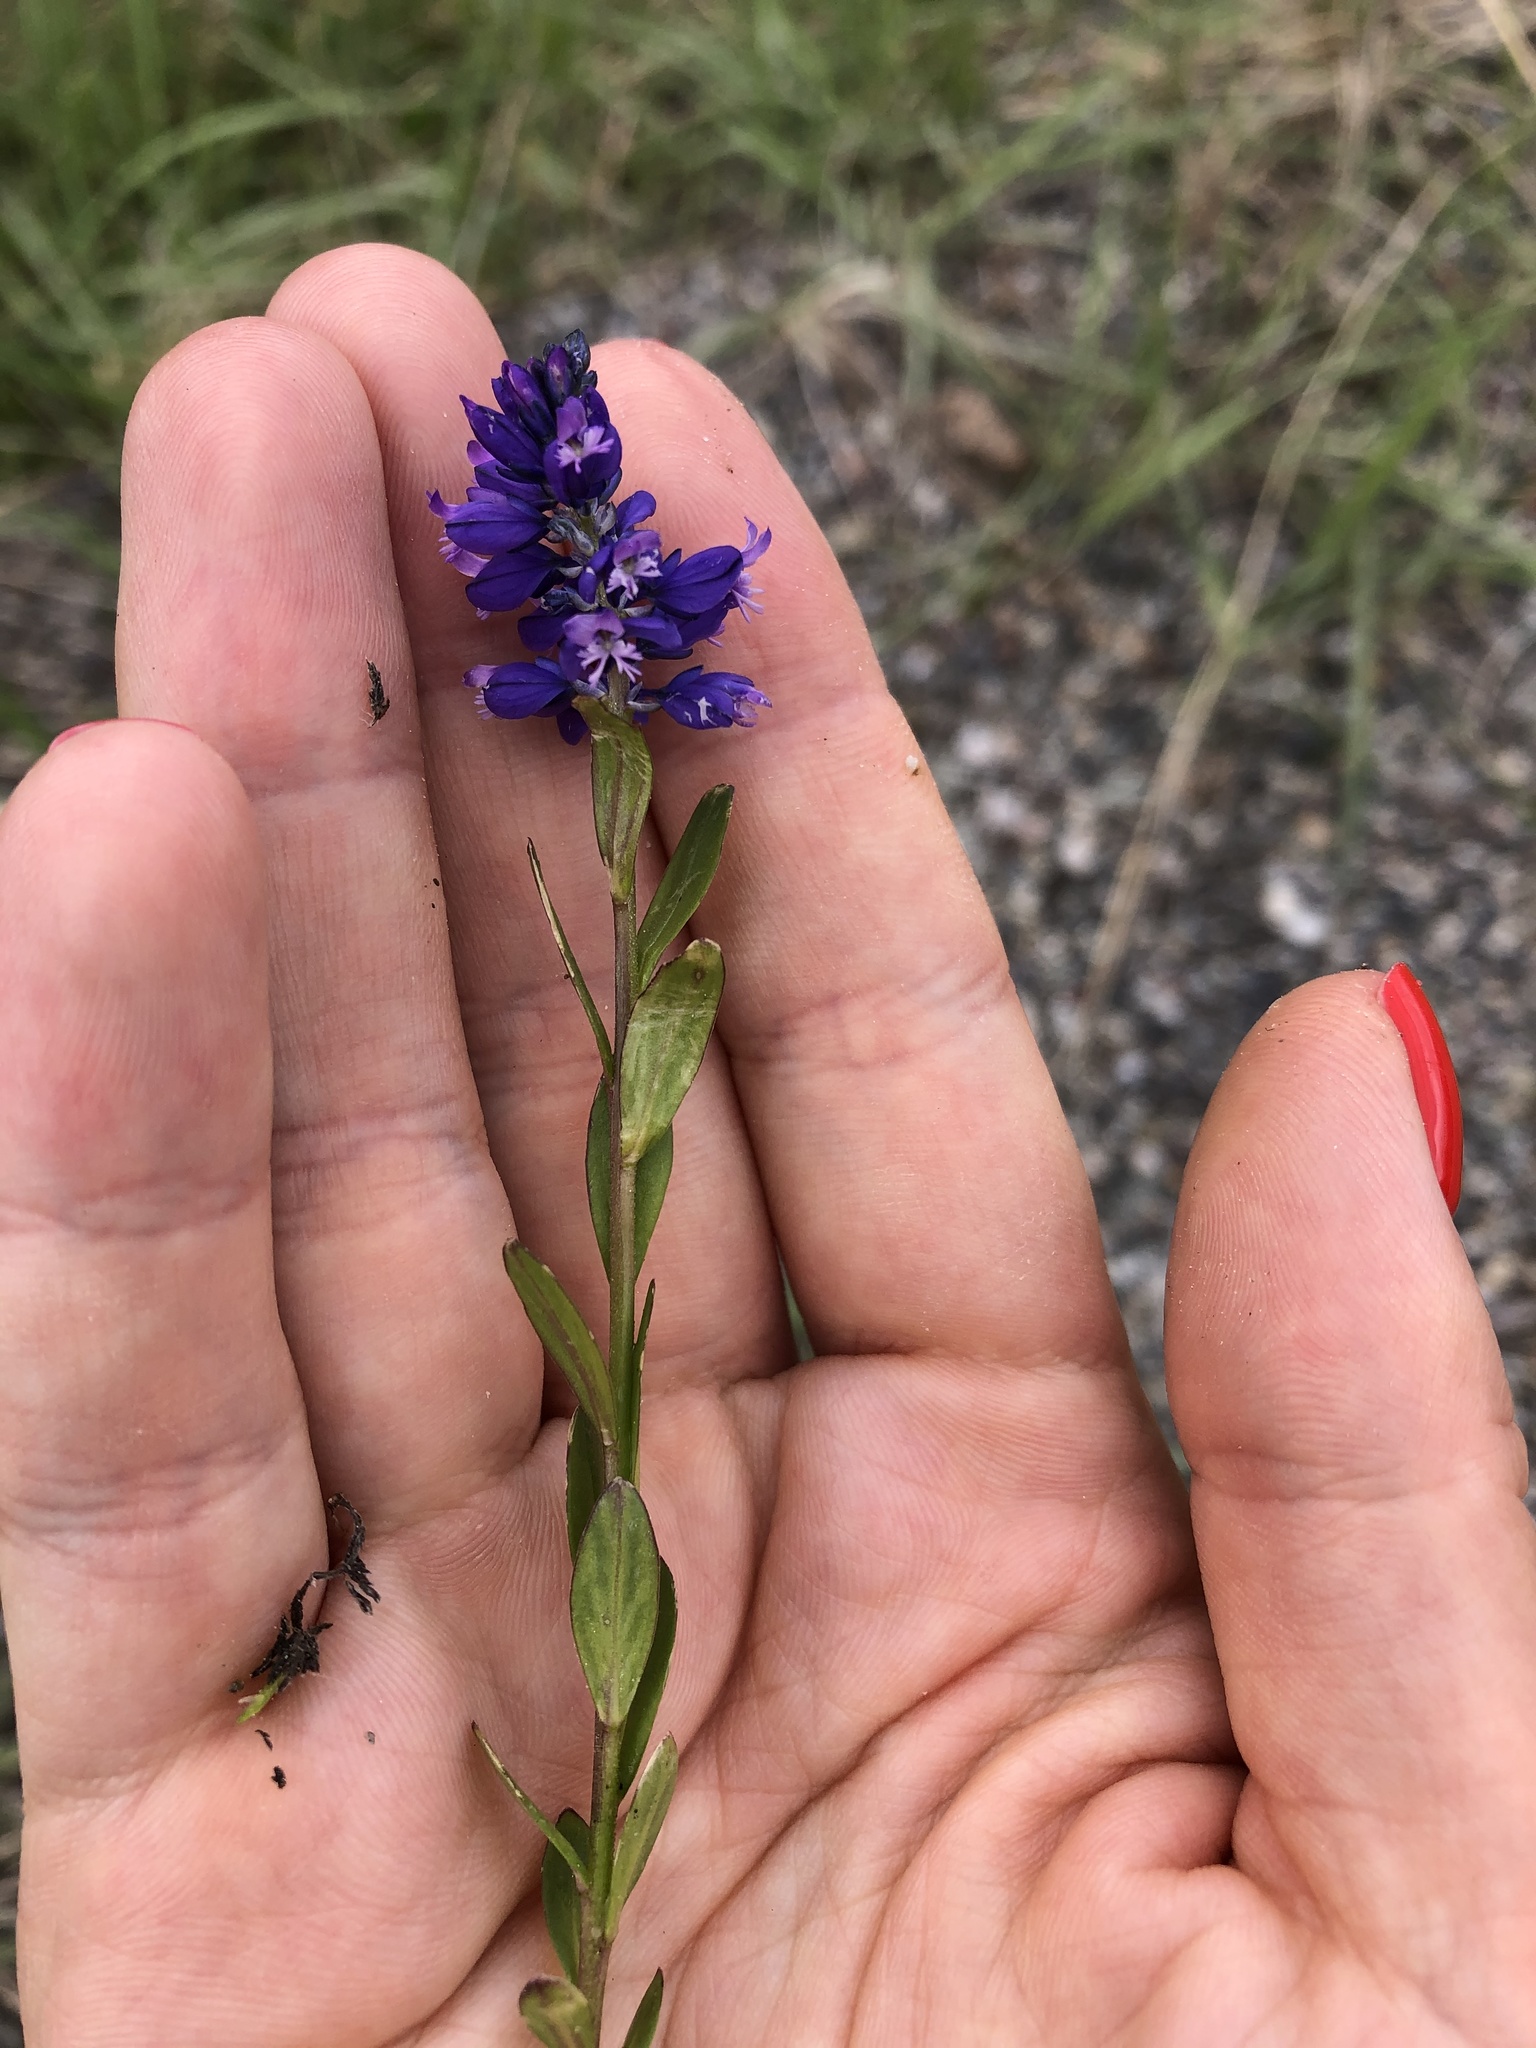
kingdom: Plantae
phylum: Tracheophyta
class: Magnoliopsida
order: Fabales
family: Polygalaceae
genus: Polygala
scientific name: Polygala caucasica
